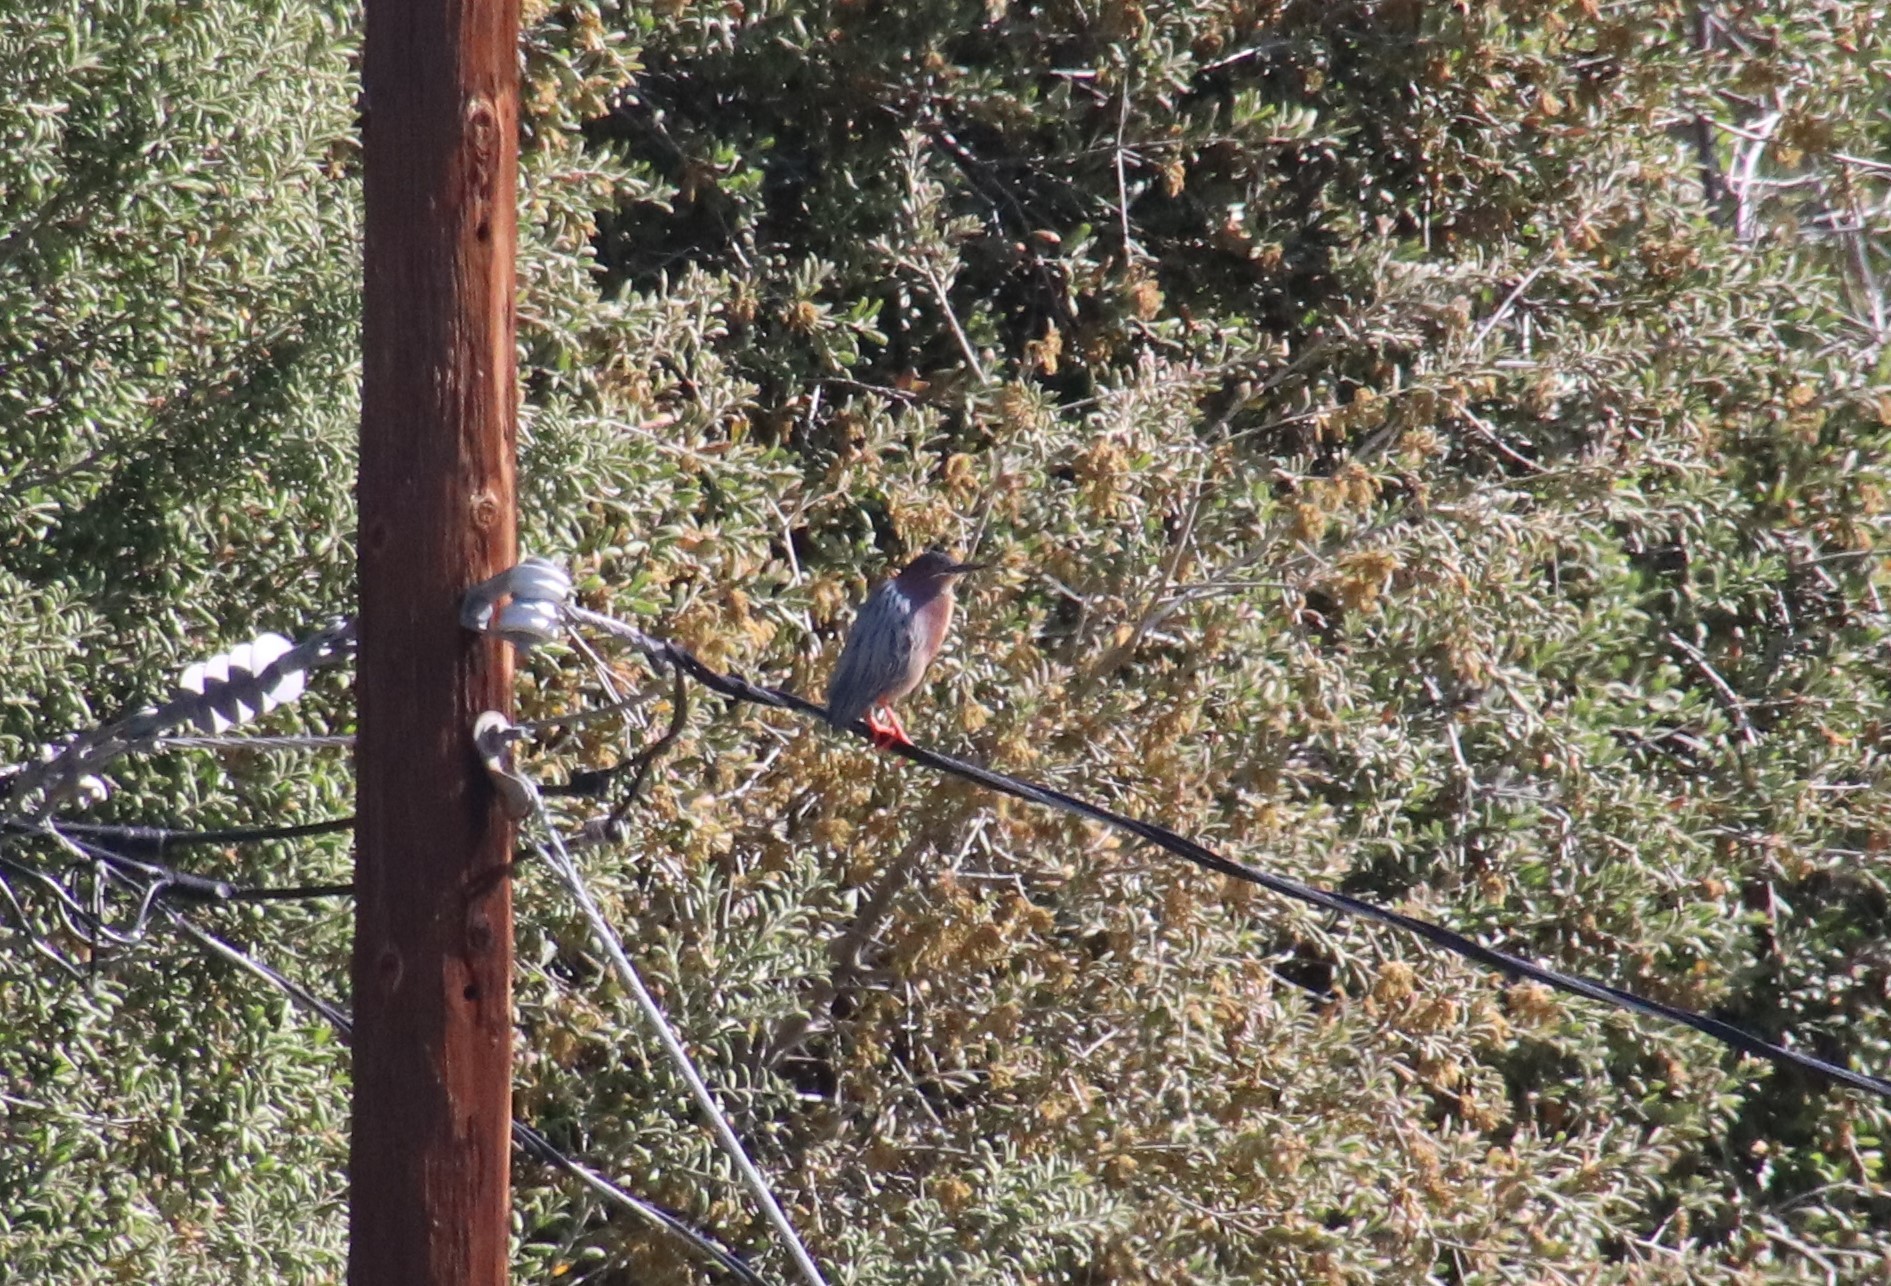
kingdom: Animalia
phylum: Chordata
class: Aves
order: Pelecaniformes
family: Ardeidae
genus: Butorides
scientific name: Butorides virescens
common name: Green heron
